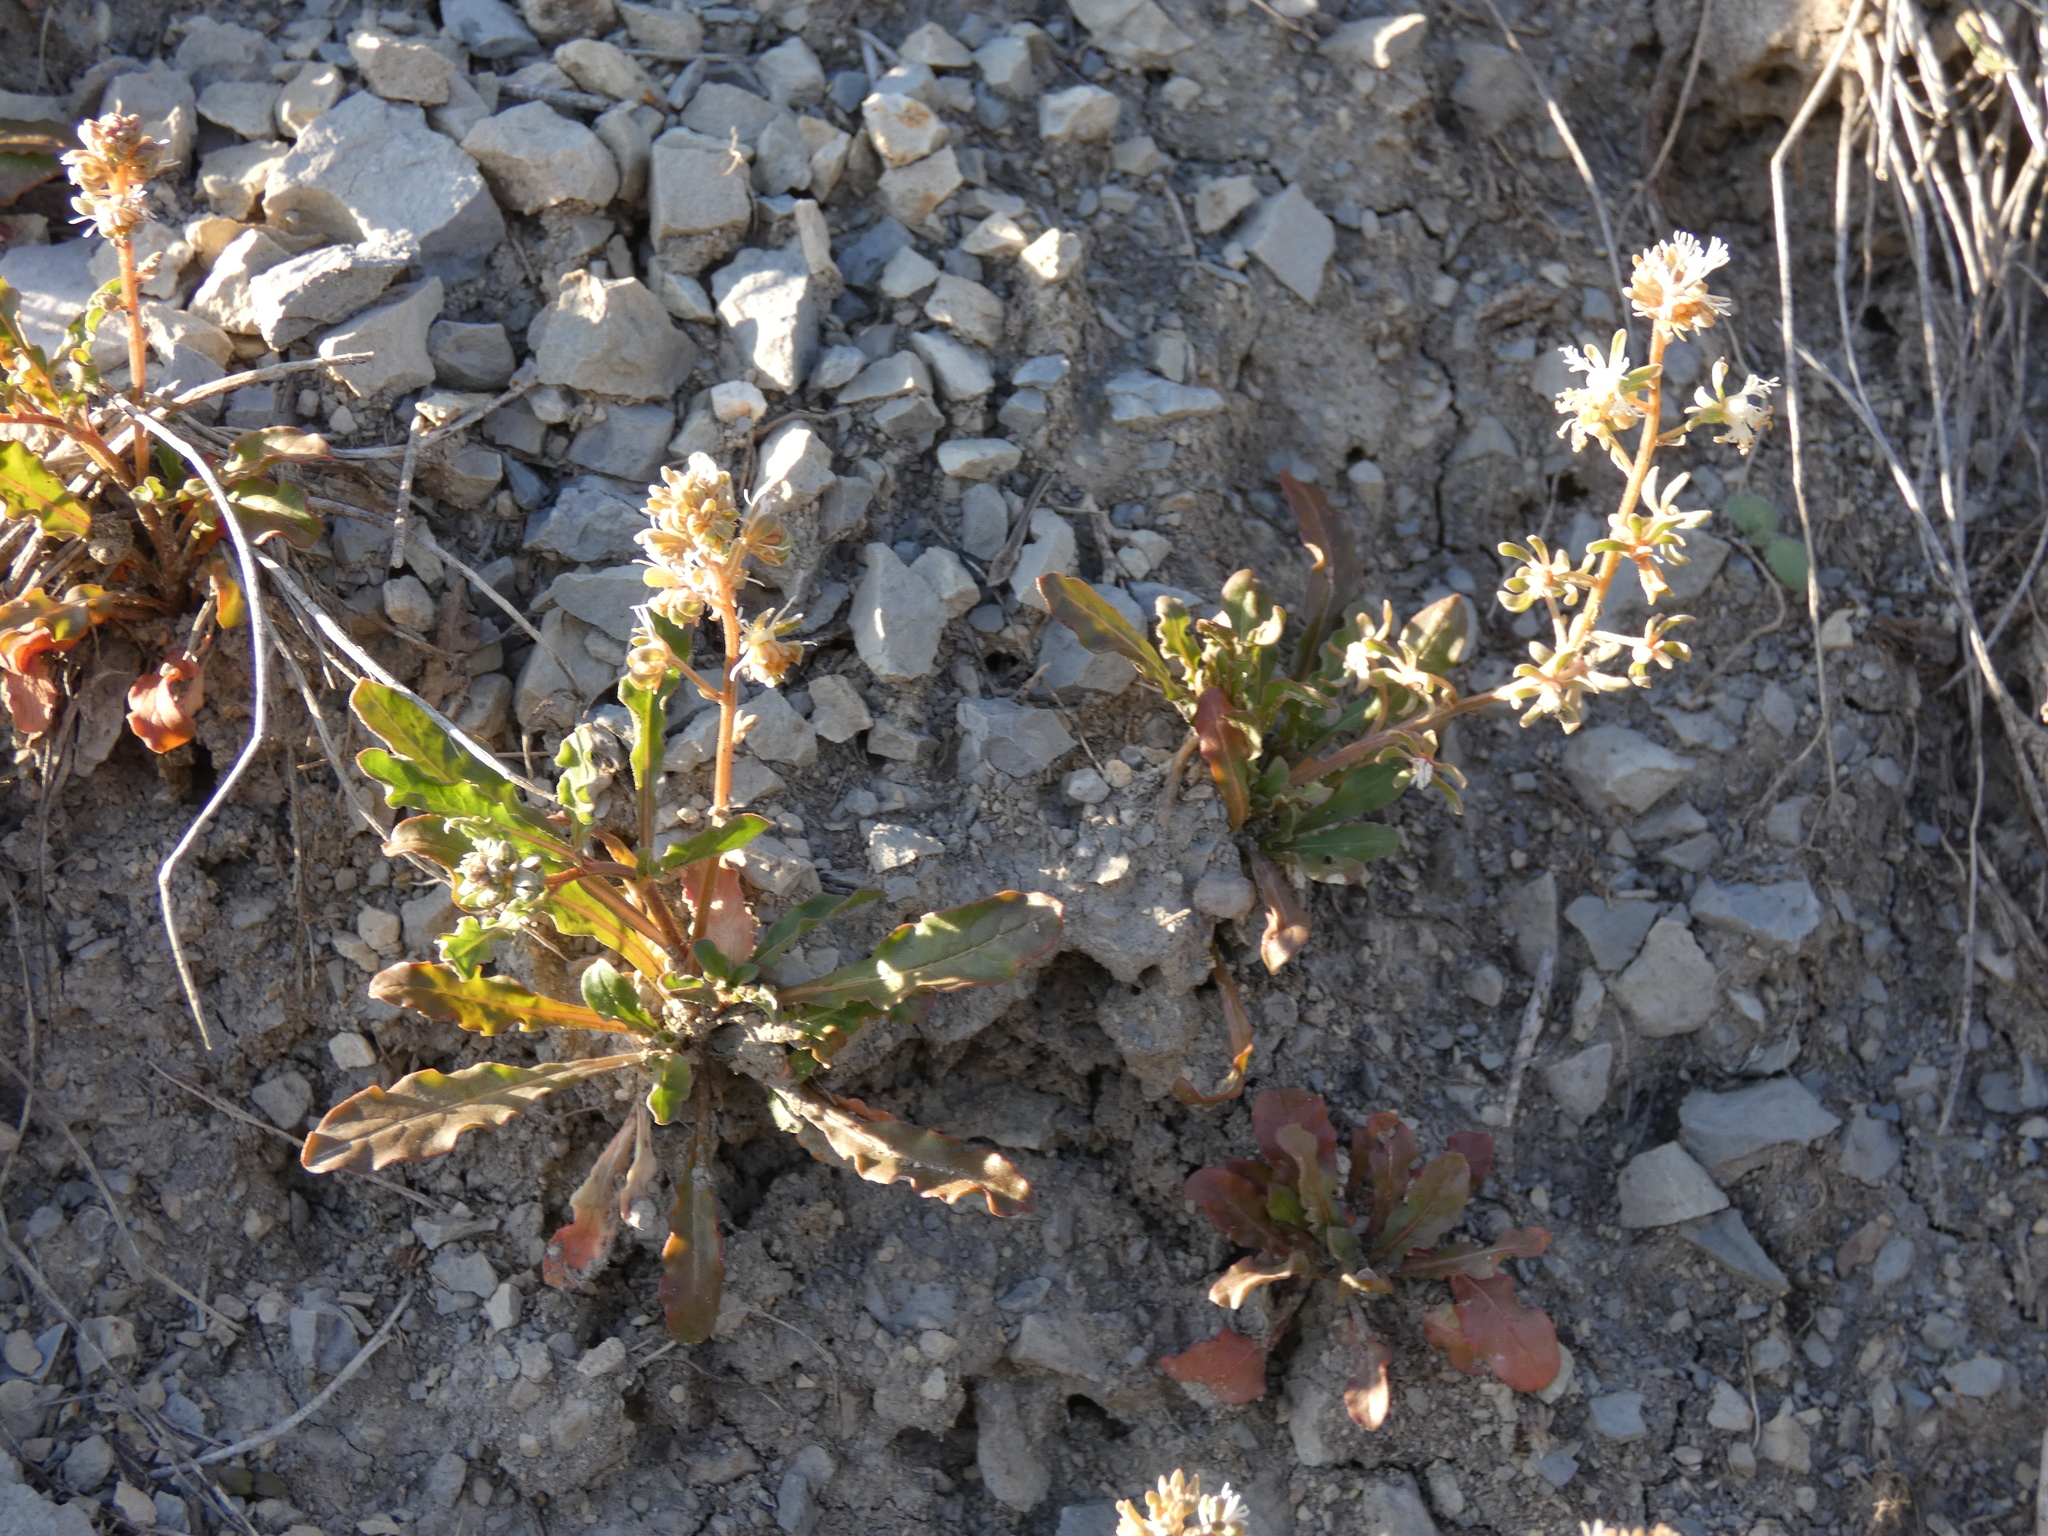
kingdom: Plantae
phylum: Tracheophyta
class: Magnoliopsida
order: Brassicales
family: Resedaceae
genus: Reseda
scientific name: Reseda phyteuma
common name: Corn mignonette
